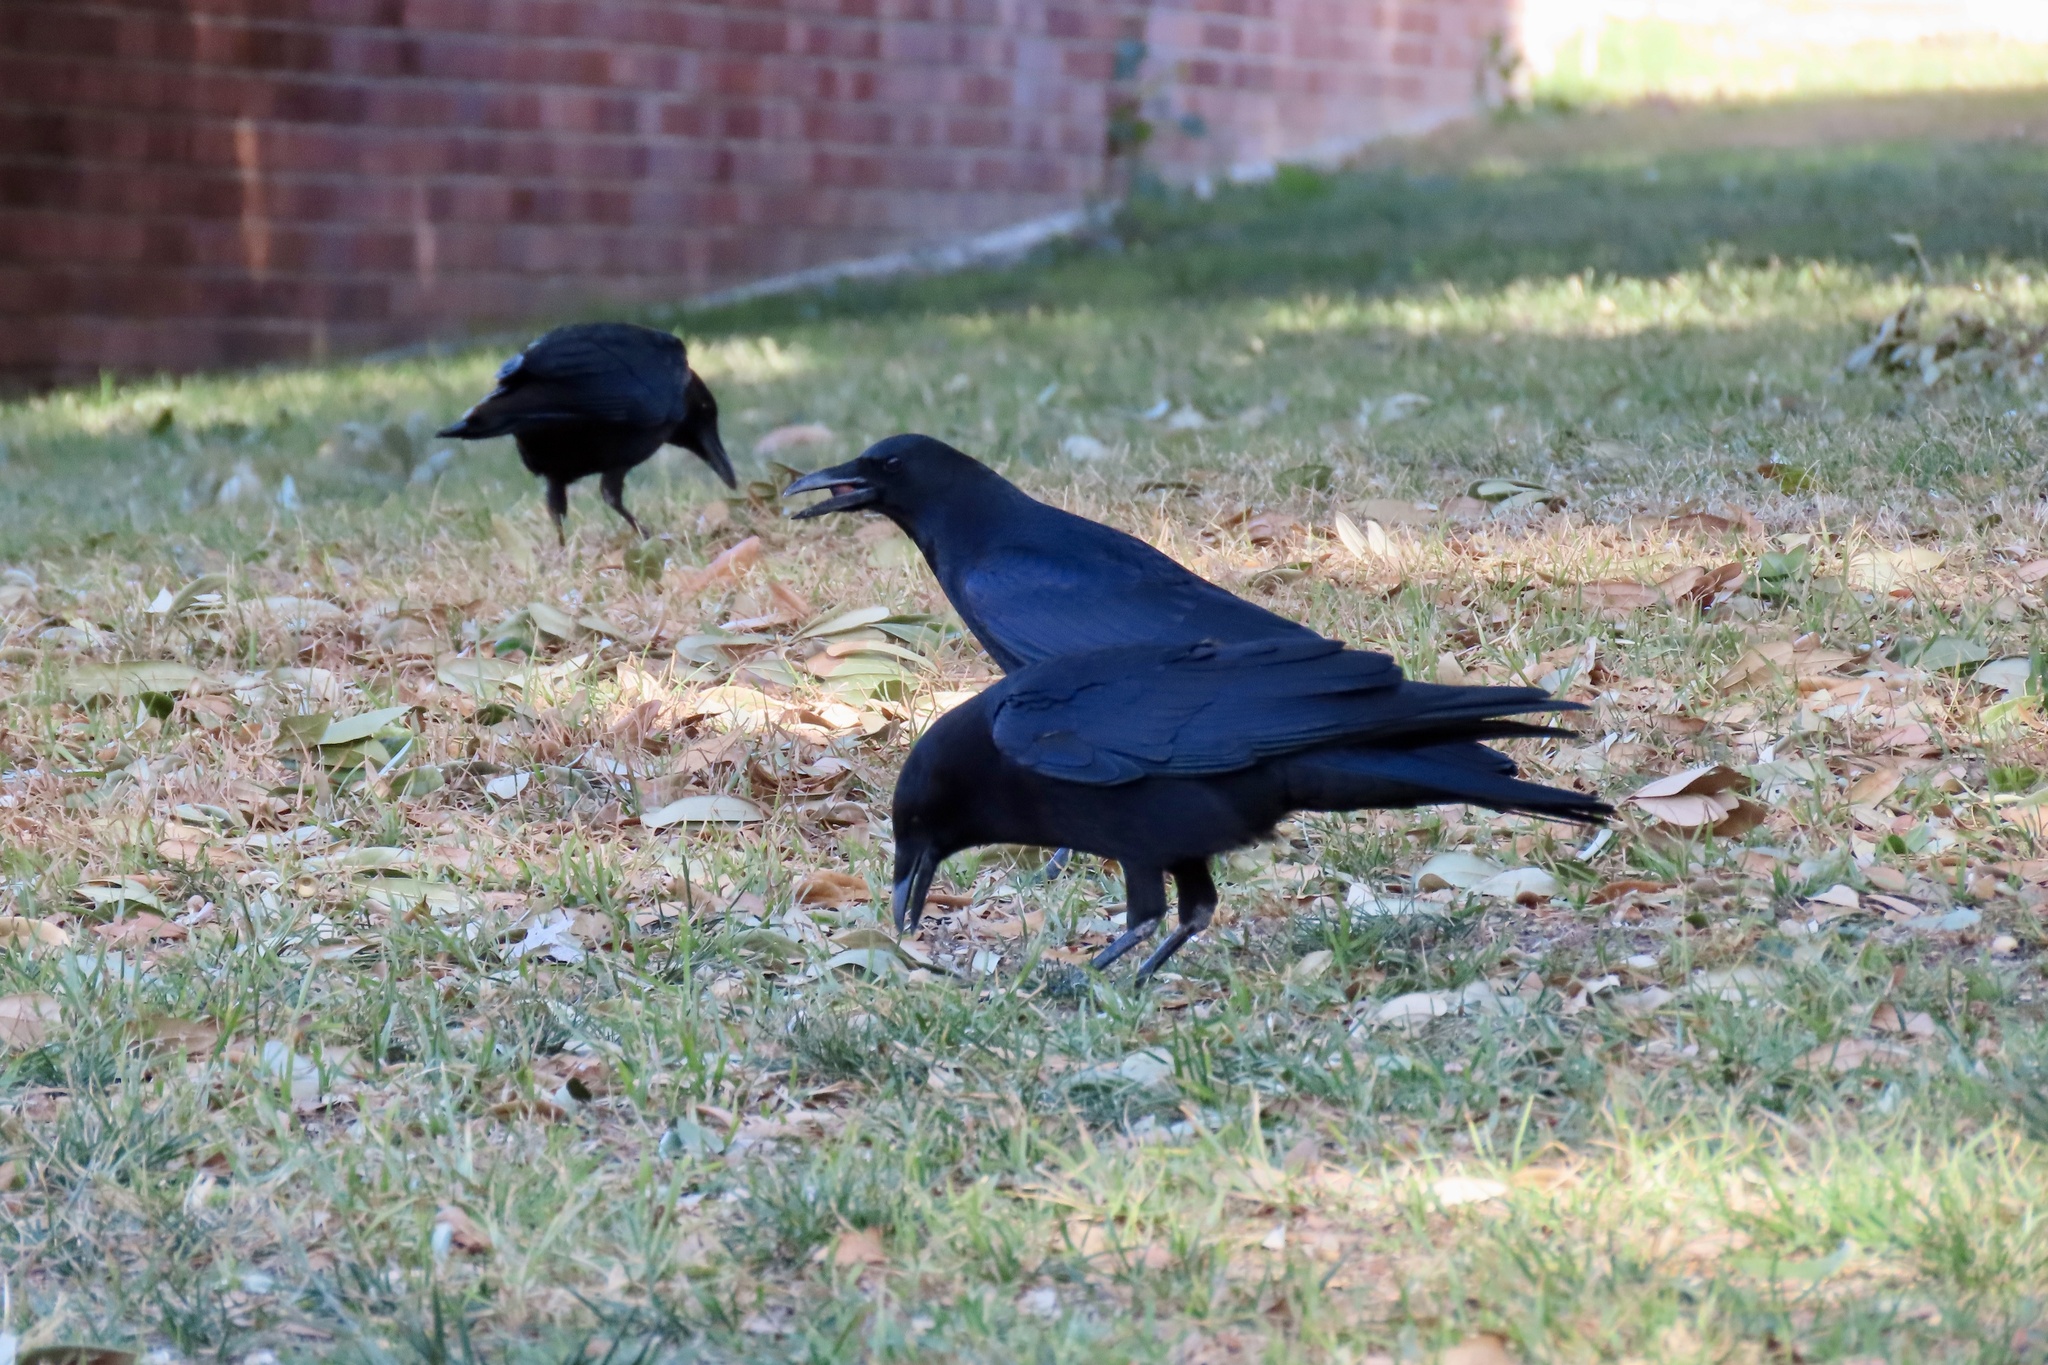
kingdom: Animalia
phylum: Chordata
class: Aves
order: Passeriformes
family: Corvidae
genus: Corvus
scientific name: Corvus brachyrhynchos
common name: American crow
